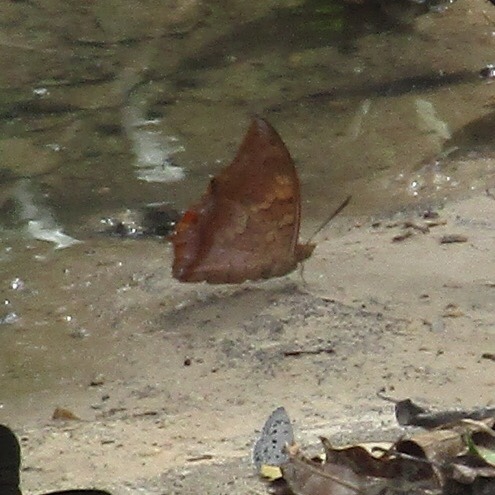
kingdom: Animalia
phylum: Arthropoda
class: Insecta
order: Lepidoptera
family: Nymphalidae
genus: Charaxes
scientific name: Charaxes bernardus
